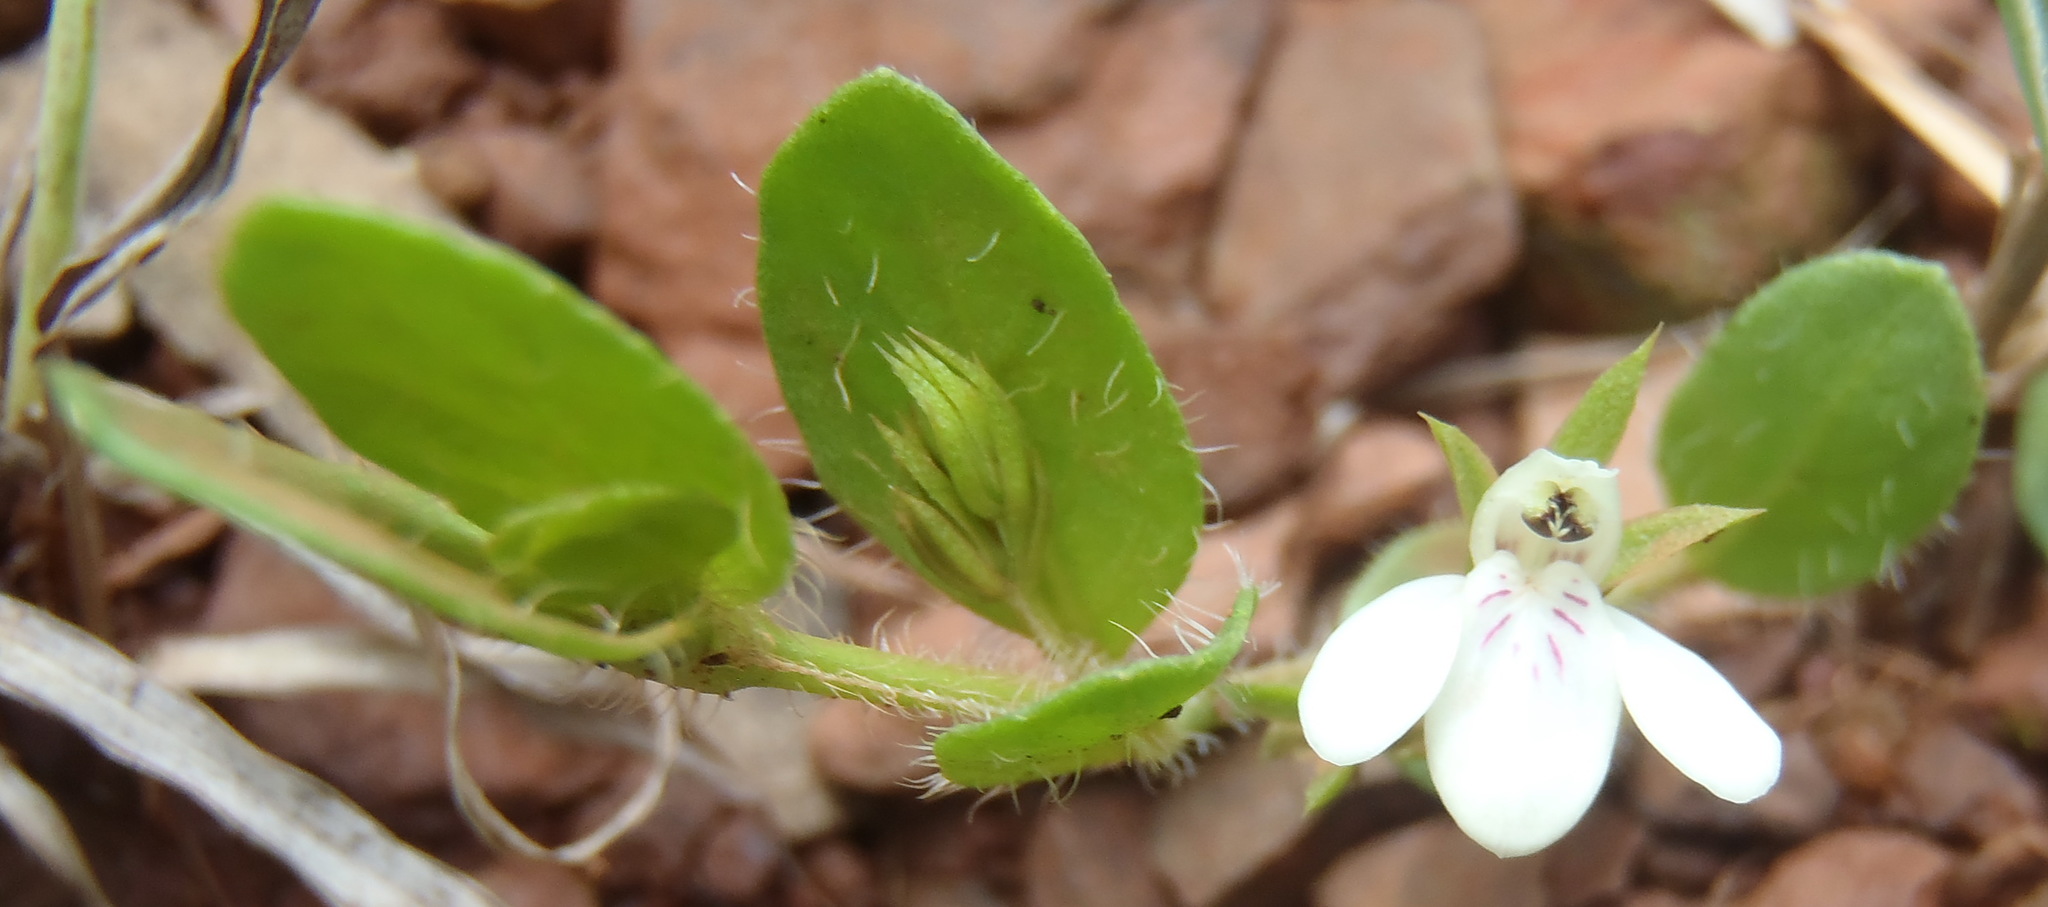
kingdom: Plantae
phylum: Tracheophyta
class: Magnoliopsida
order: Lamiales
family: Acanthaceae
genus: Justicia
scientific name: Justicia anagalloides
